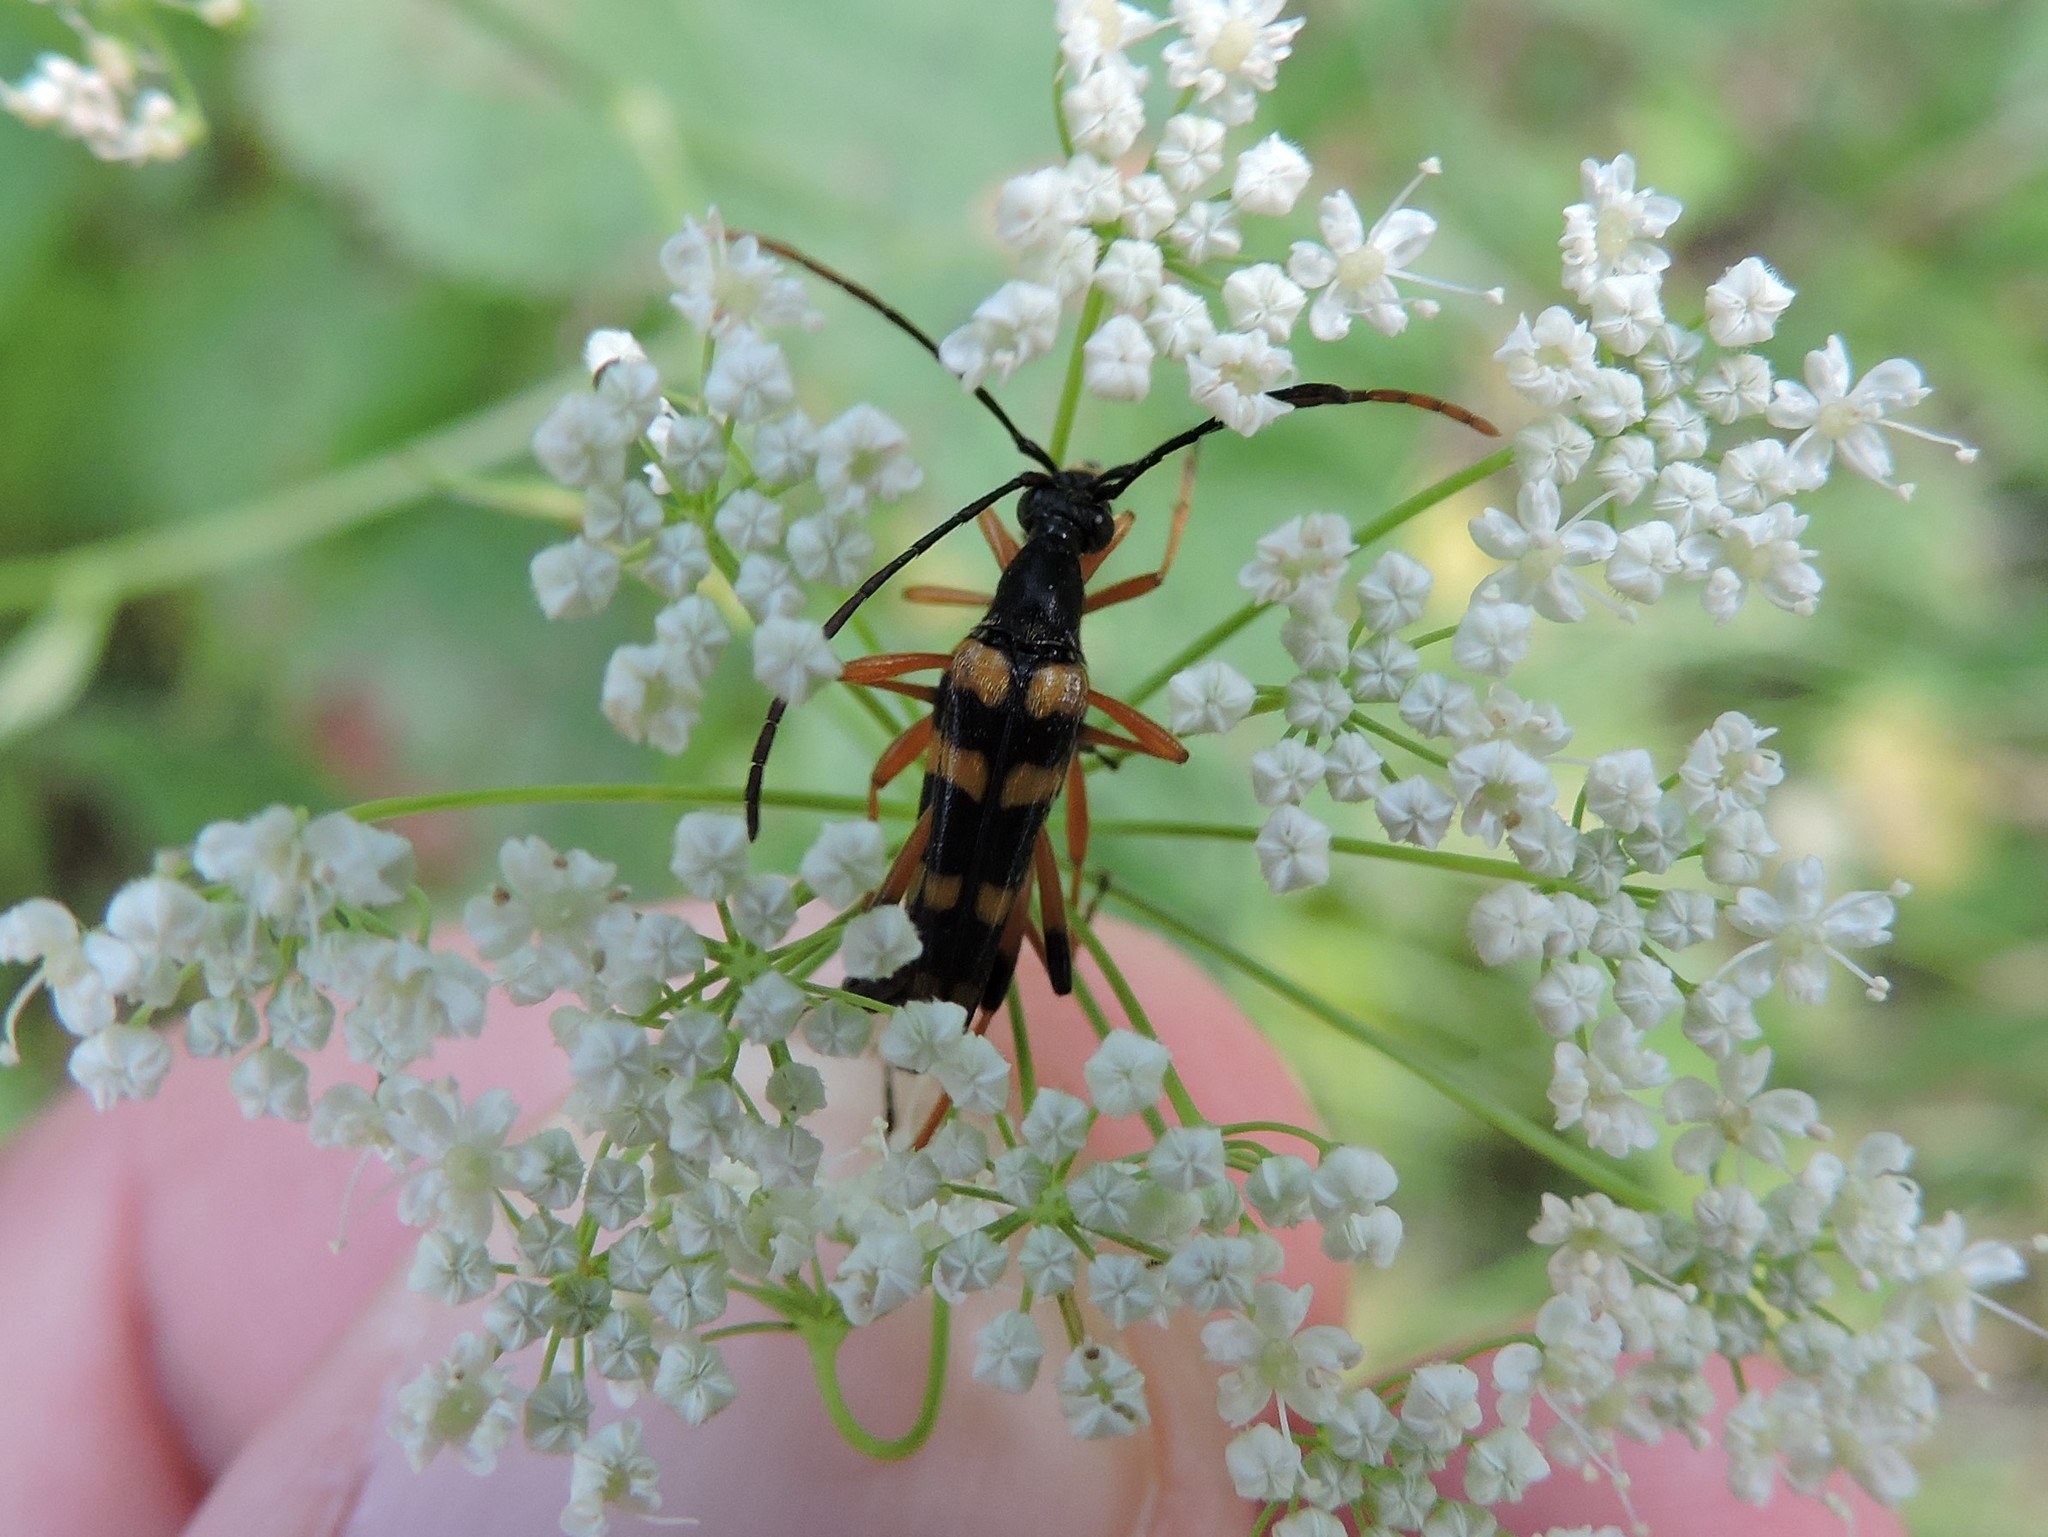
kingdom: Animalia
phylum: Arthropoda
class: Insecta
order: Coleoptera
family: Cerambycidae
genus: Strangalia
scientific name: Strangalia attenuata
